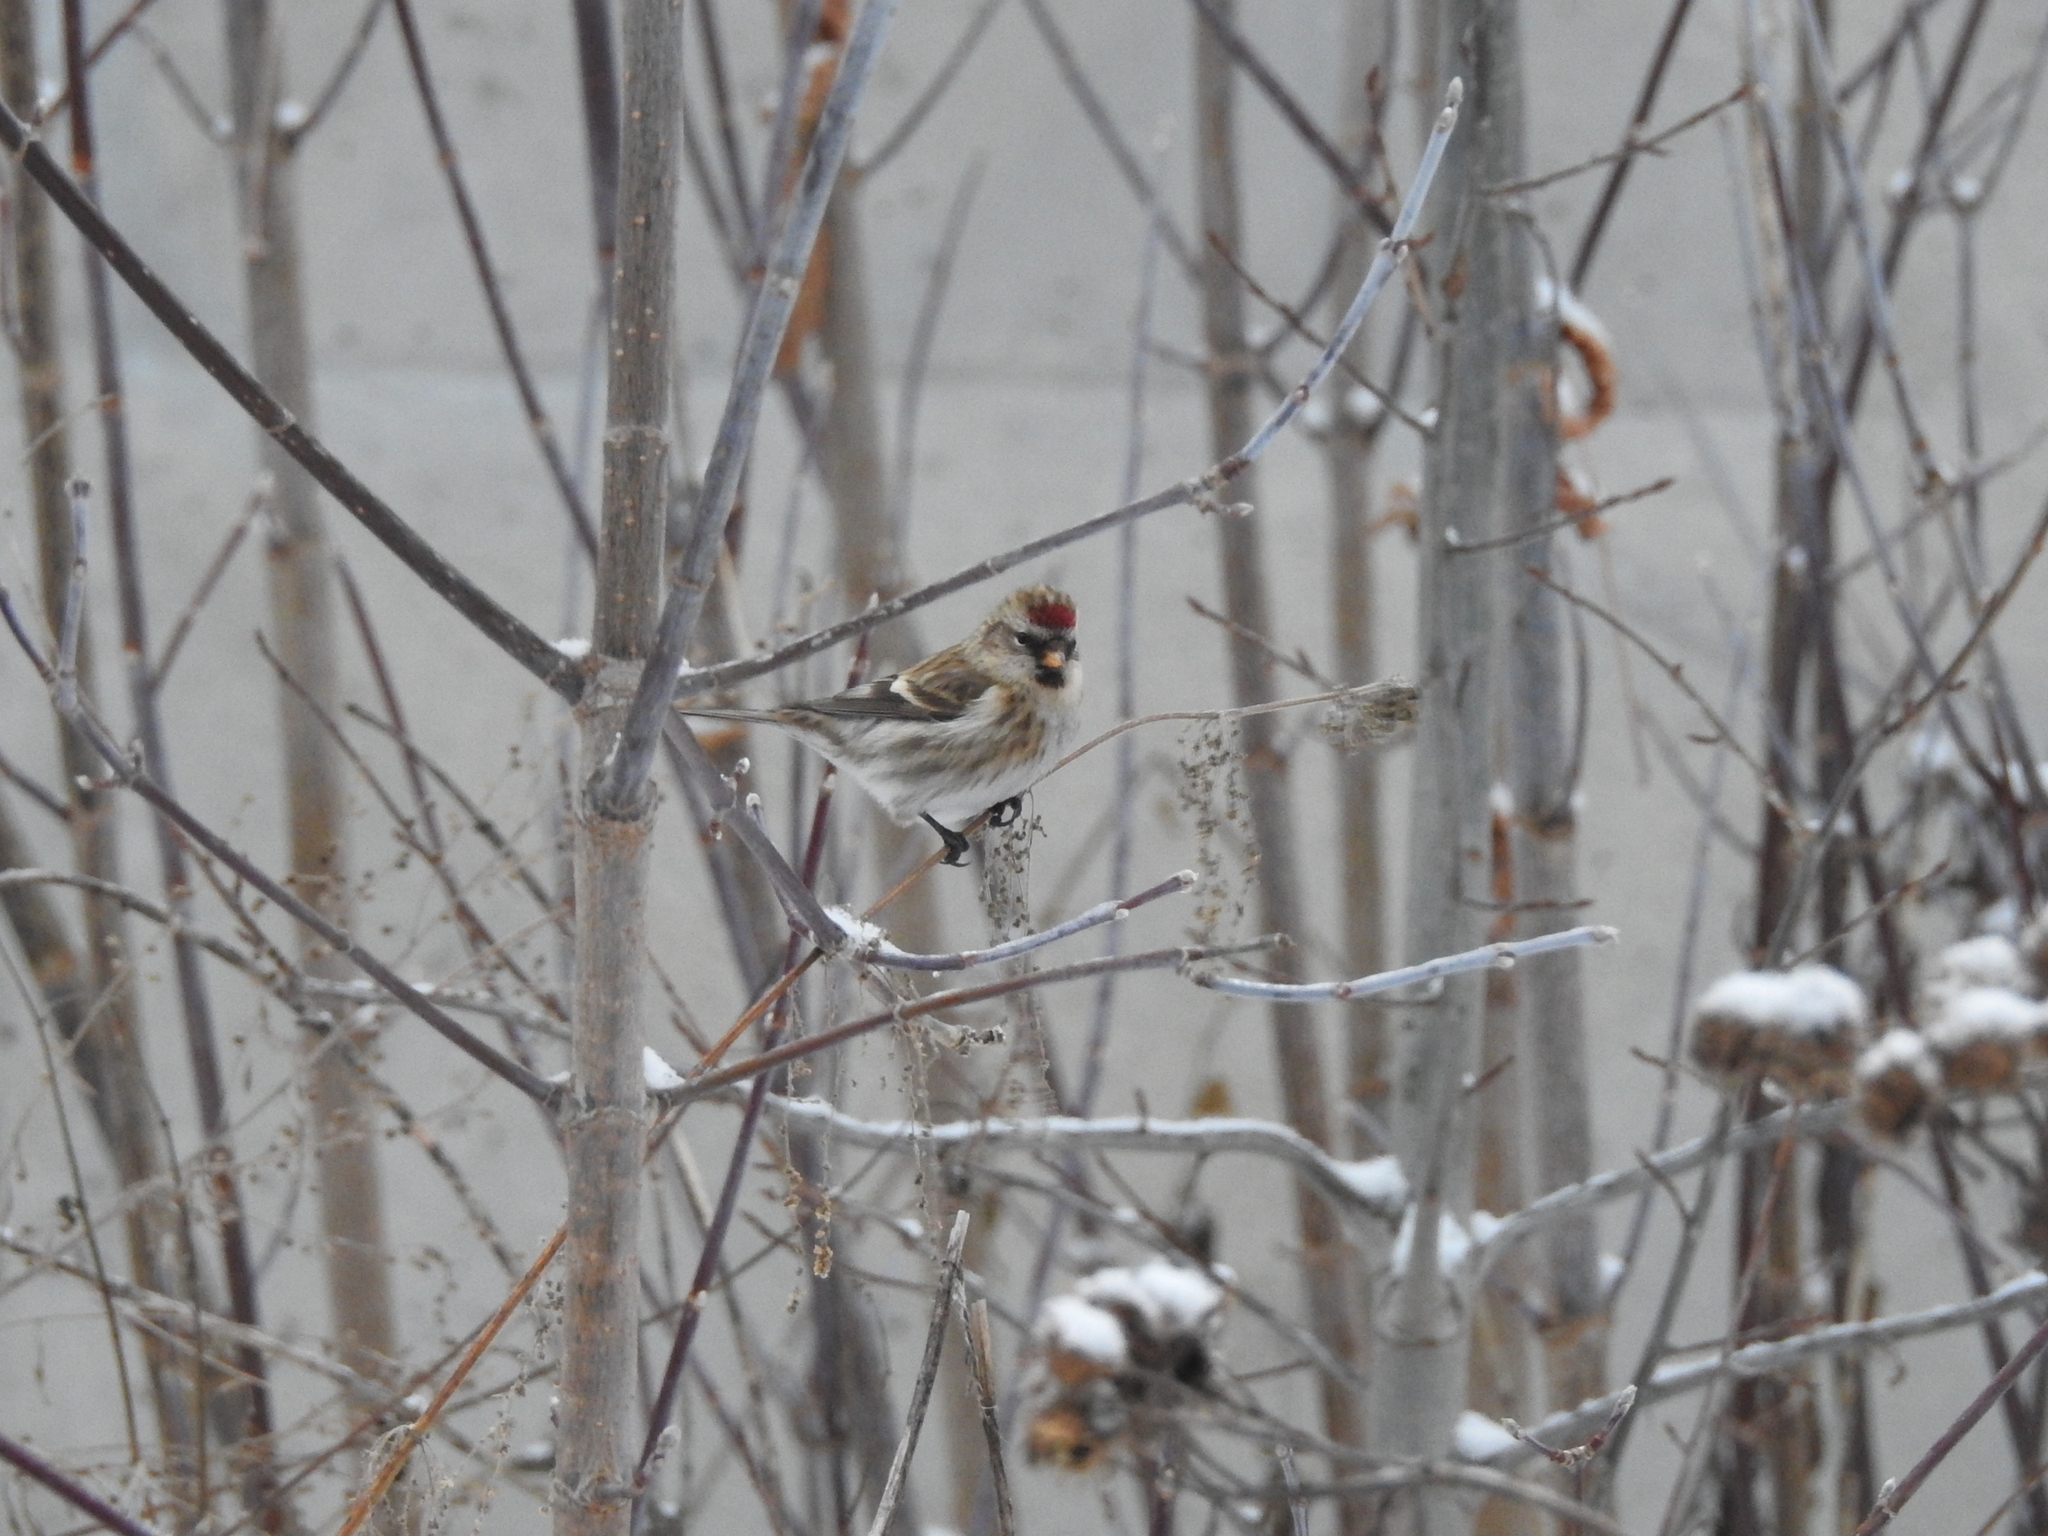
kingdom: Animalia
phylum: Chordata
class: Aves
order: Passeriformes
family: Fringillidae
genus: Acanthis
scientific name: Acanthis flammea
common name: Common redpoll
